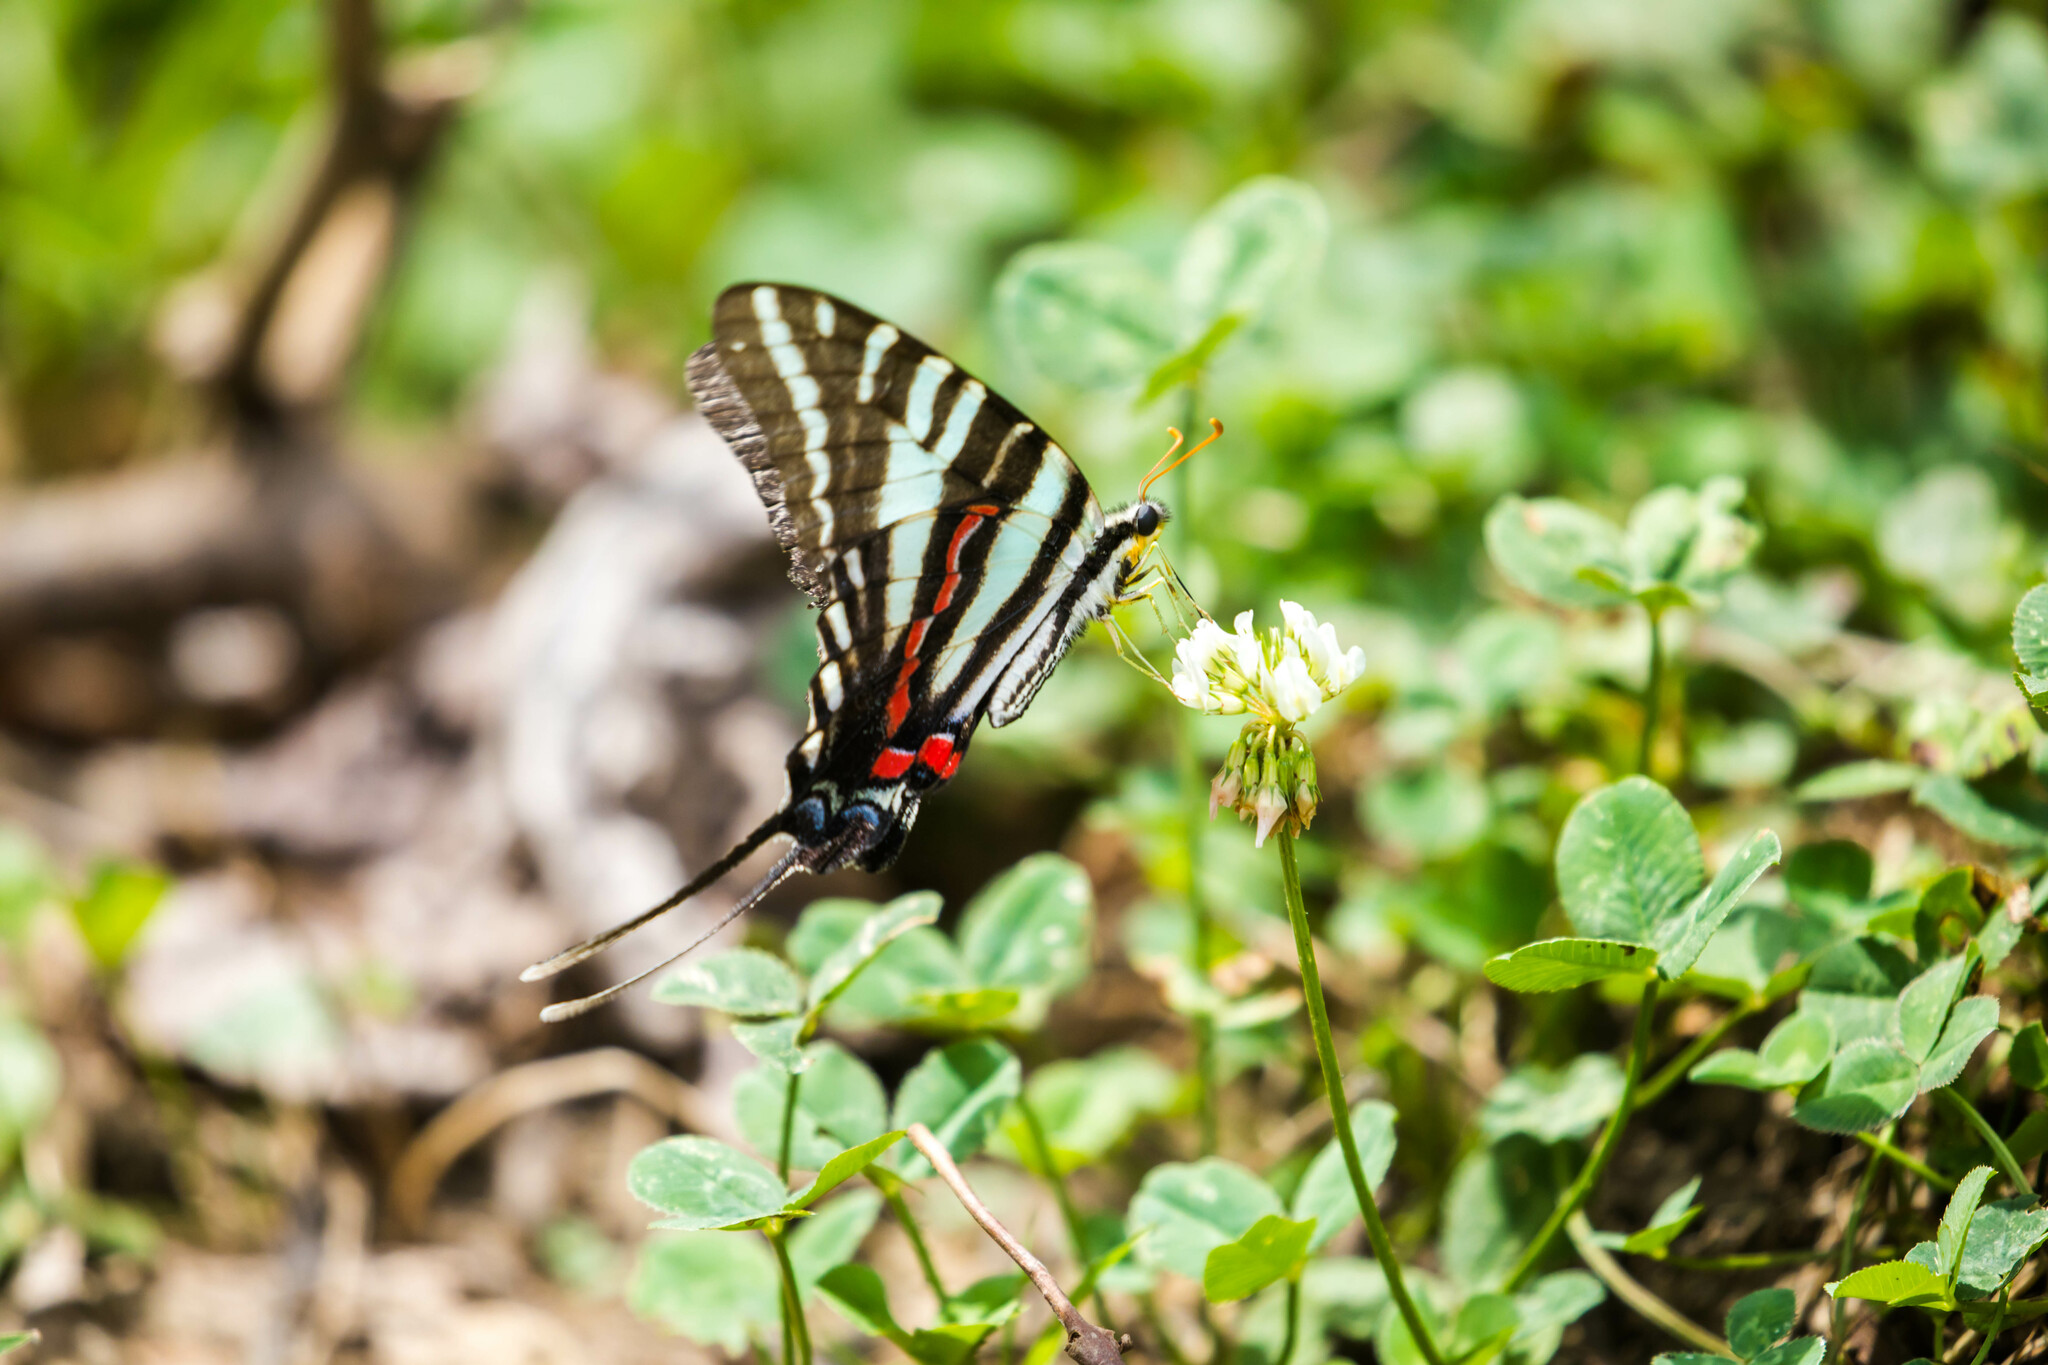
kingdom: Animalia
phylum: Arthropoda
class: Insecta
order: Lepidoptera
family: Papilionidae
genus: Protographium
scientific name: Protographium marcellus
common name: Zebra swallowtail
